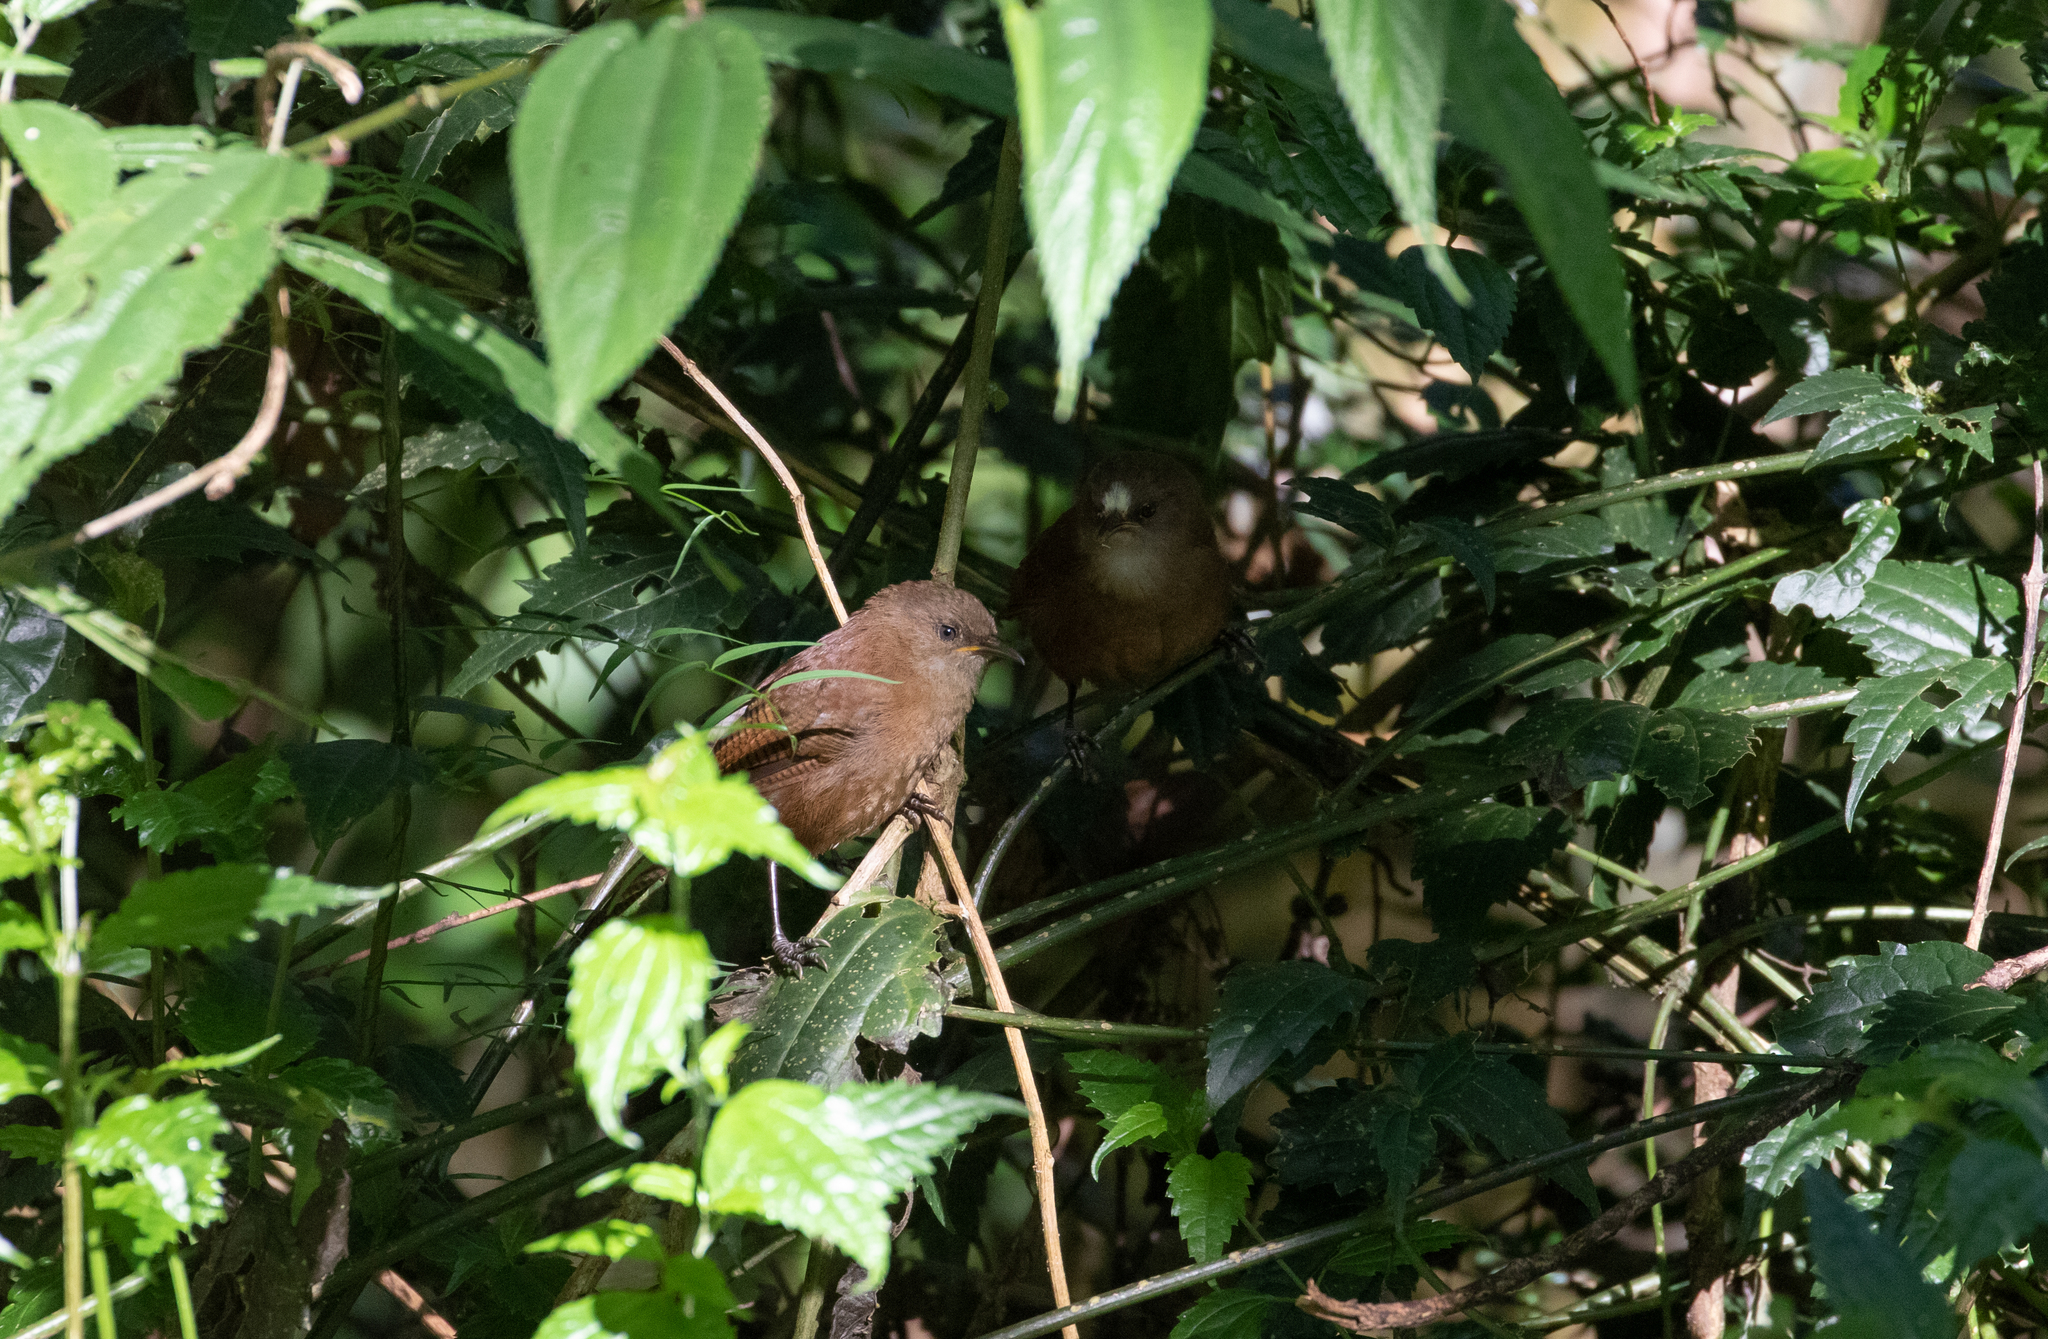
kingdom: Animalia
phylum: Chordata
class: Aves
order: Passeriformes
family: Troglodytidae
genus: Cinnycerthia
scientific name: Cinnycerthia olivascens
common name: Sharpe's wren
